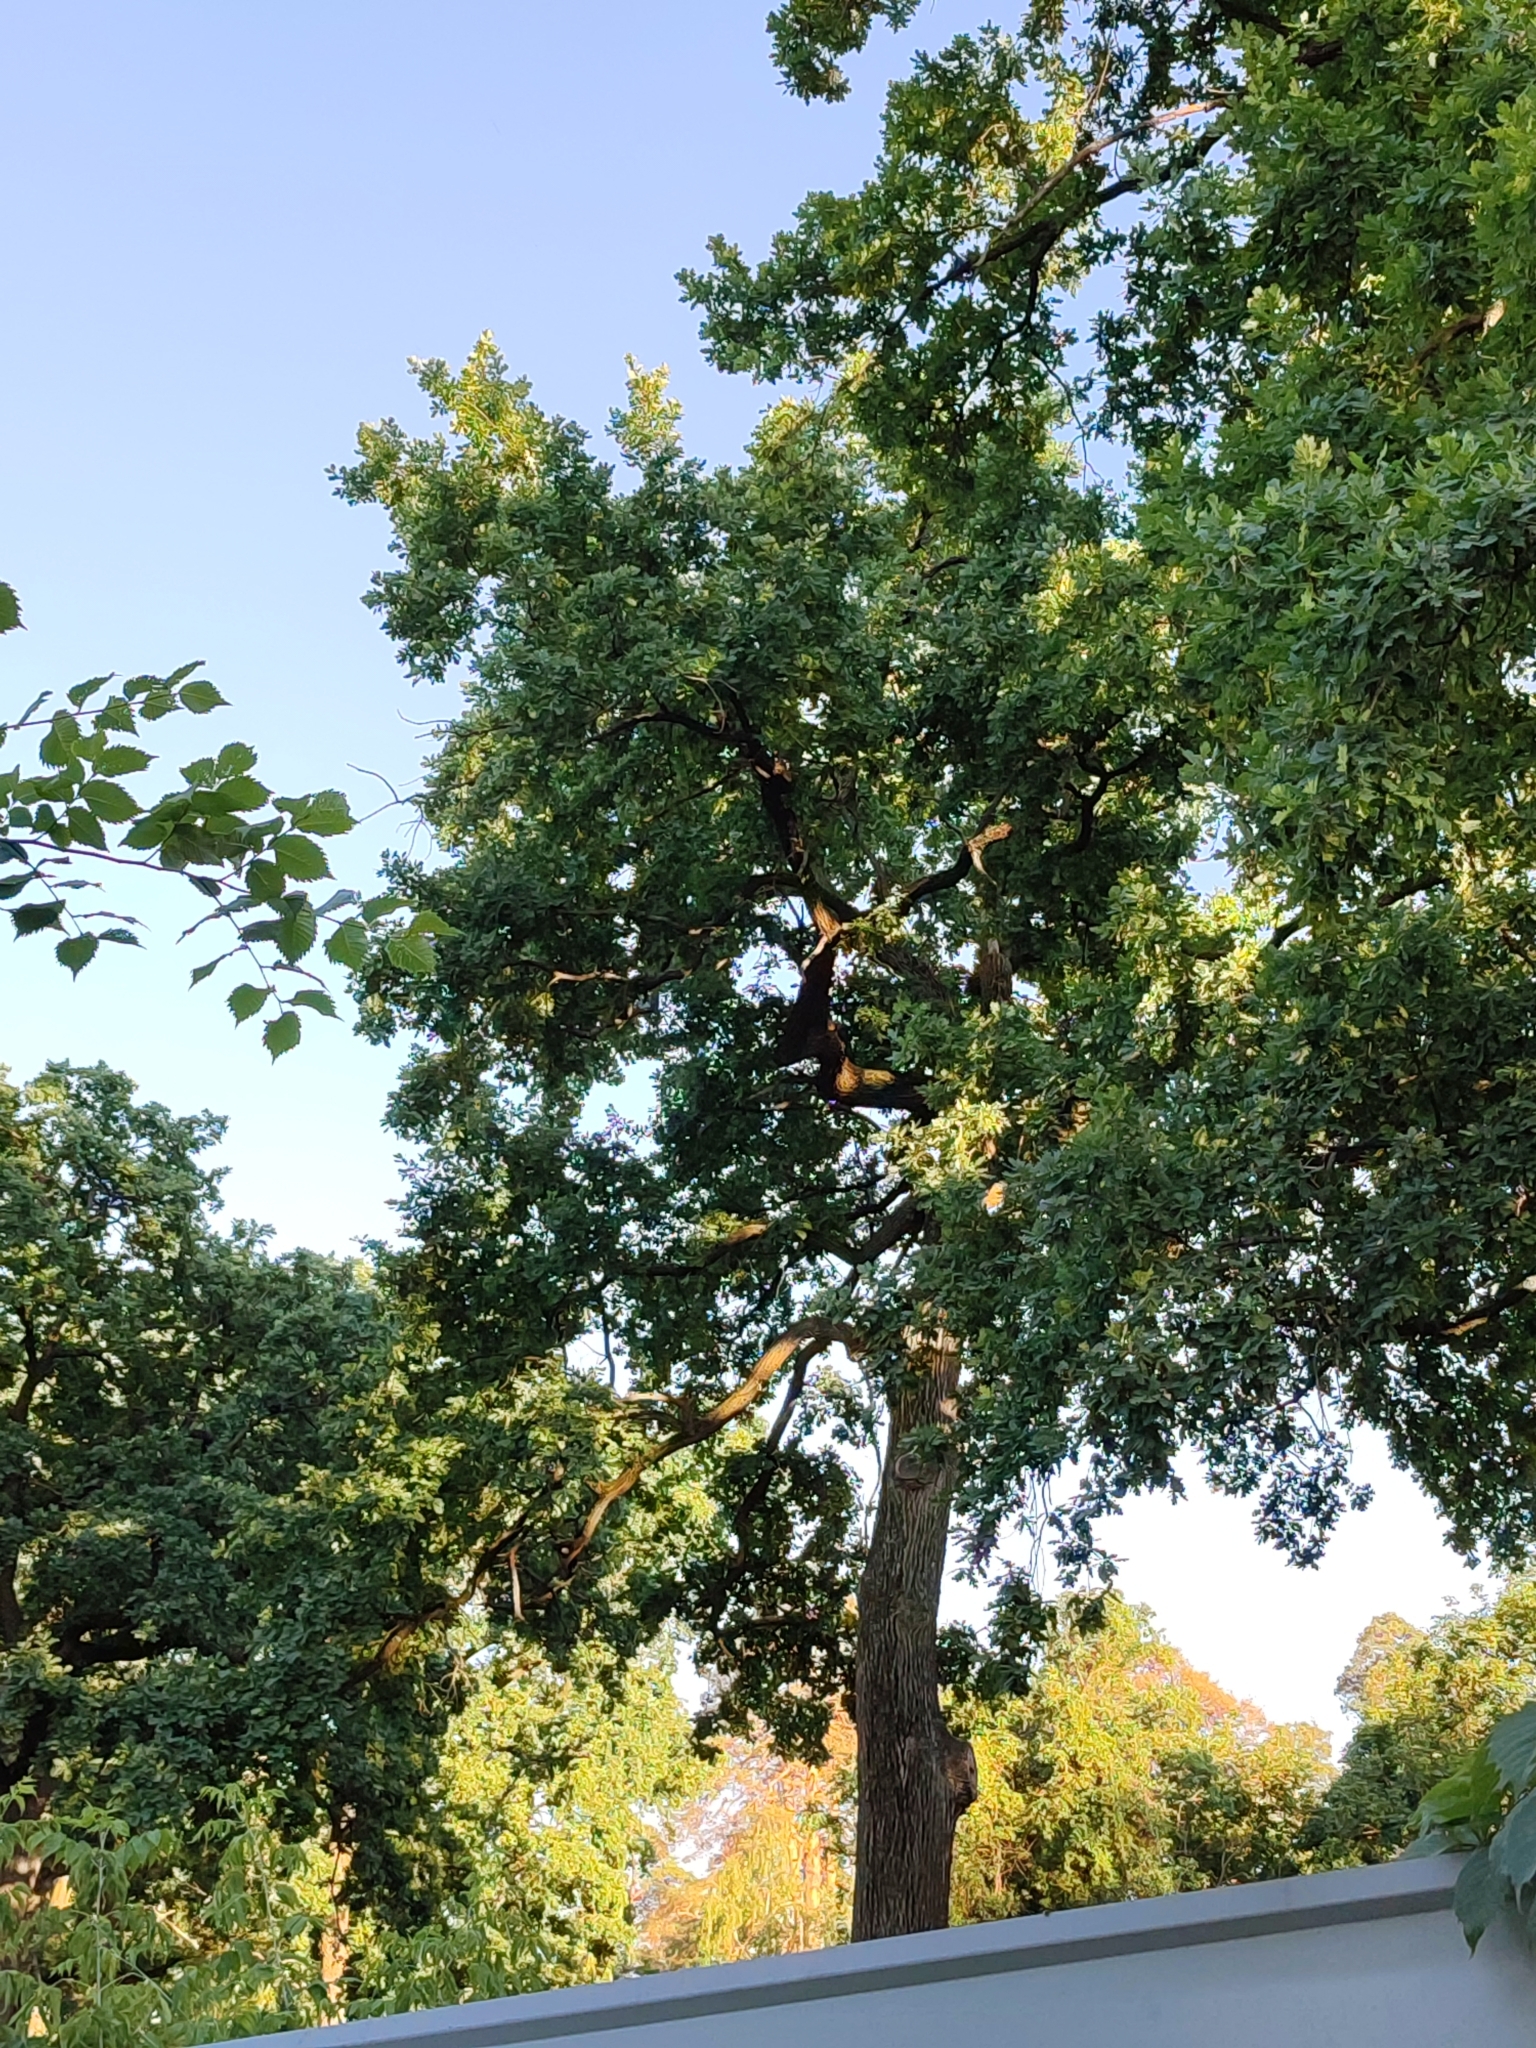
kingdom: Plantae
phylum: Tracheophyta
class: Magnoliopsida
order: Fagales
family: Fagaceae
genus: Quercus
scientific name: Quercus robur
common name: Pedunculate oak
